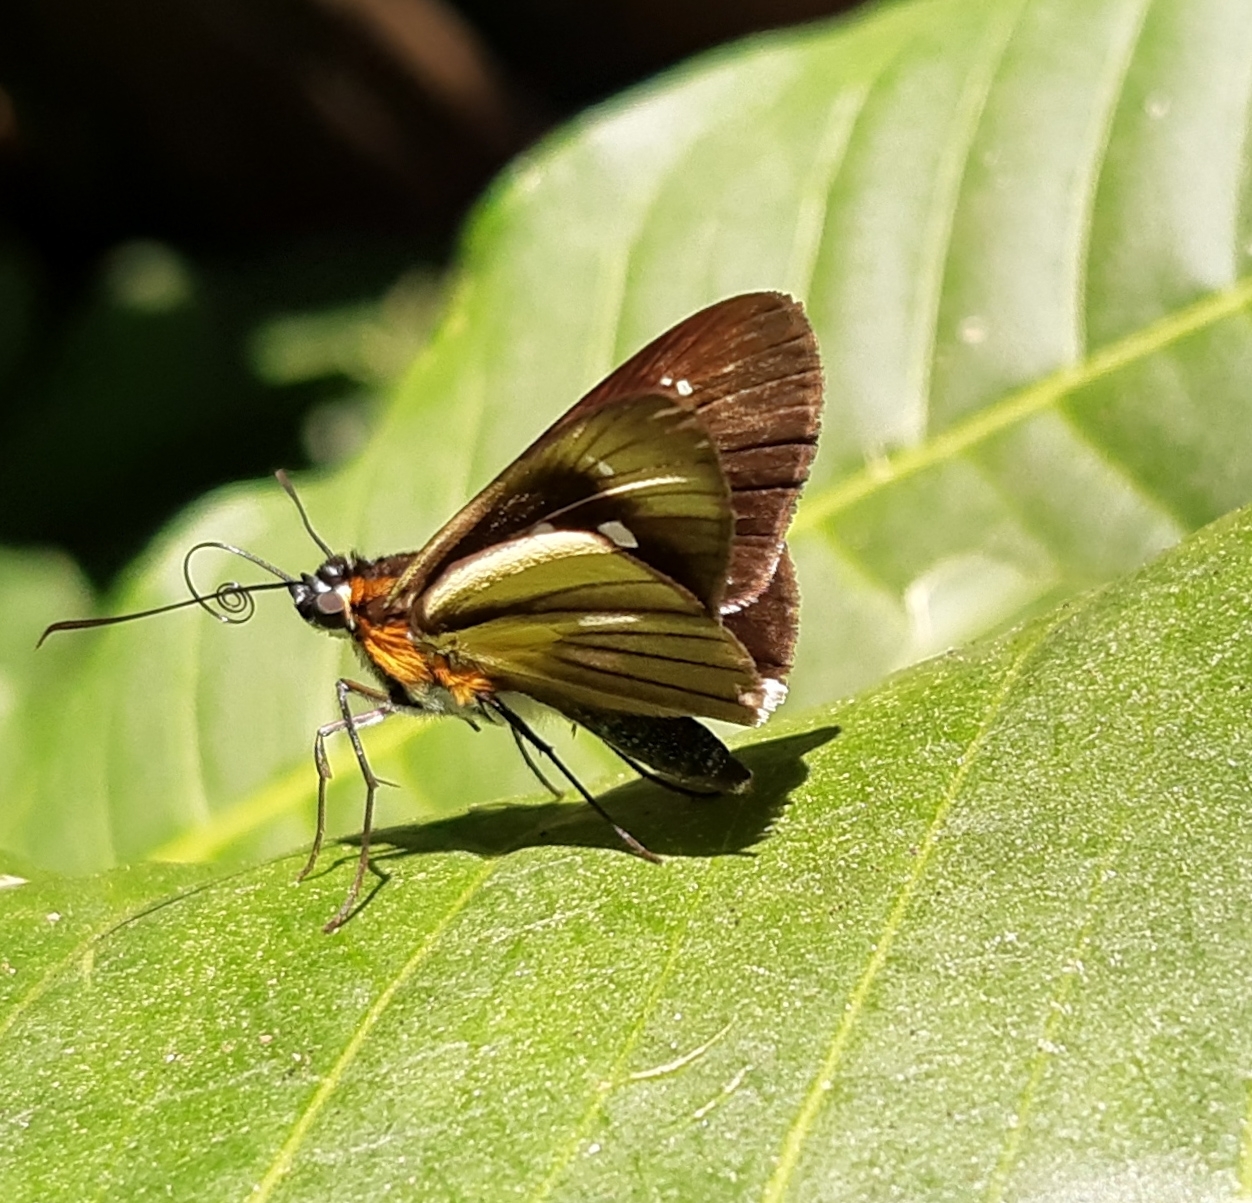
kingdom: Animalia
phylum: Arthropoda
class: Insecta
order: Lepidoptera
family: Hesperiidae
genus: Vettius
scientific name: Vettius phyllus
